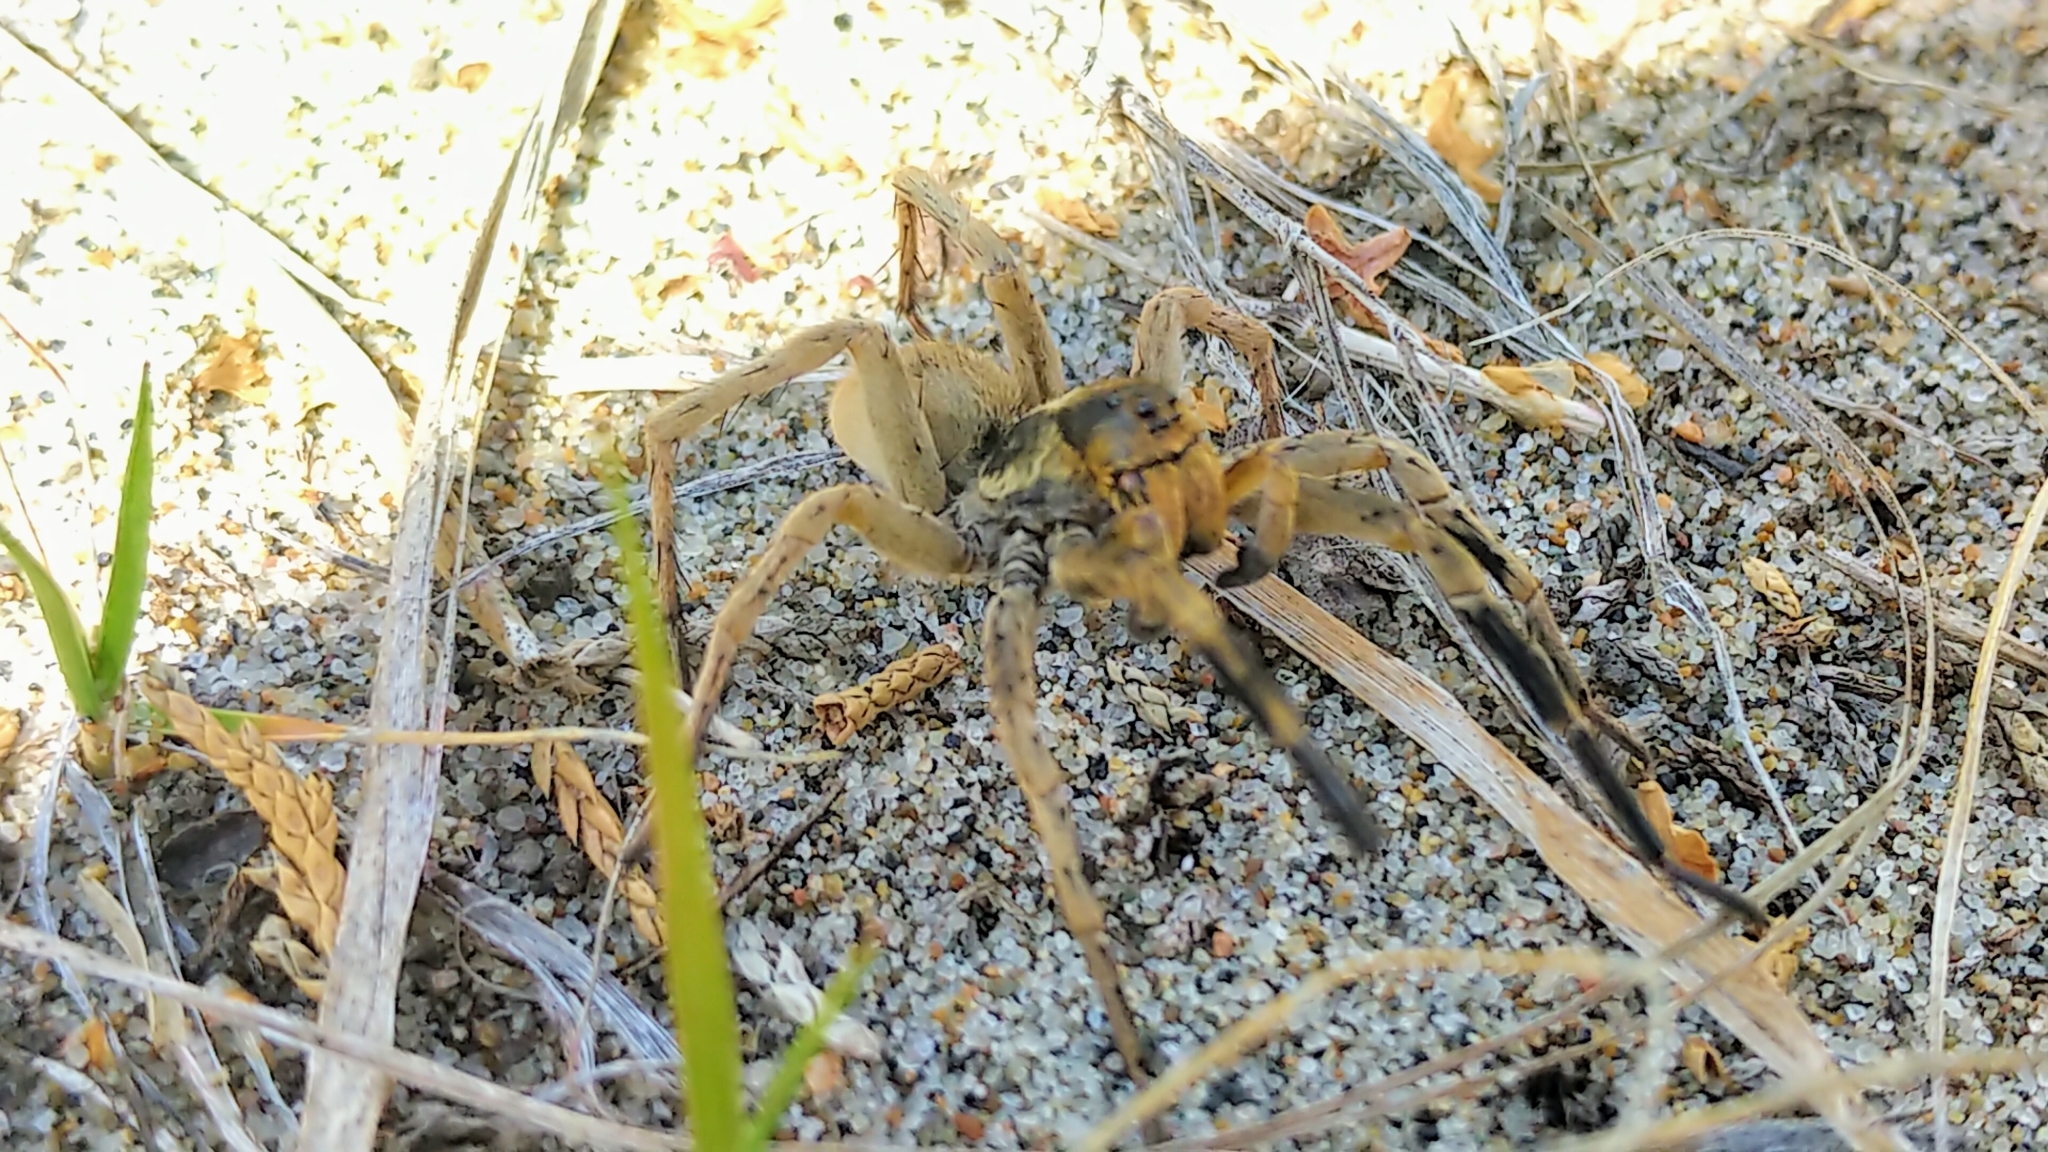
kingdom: Animalia
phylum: Arthropoda
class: Arachnida
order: Araneae
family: Lycosidae
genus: Geolycosa
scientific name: Geolycosa missouriensis
